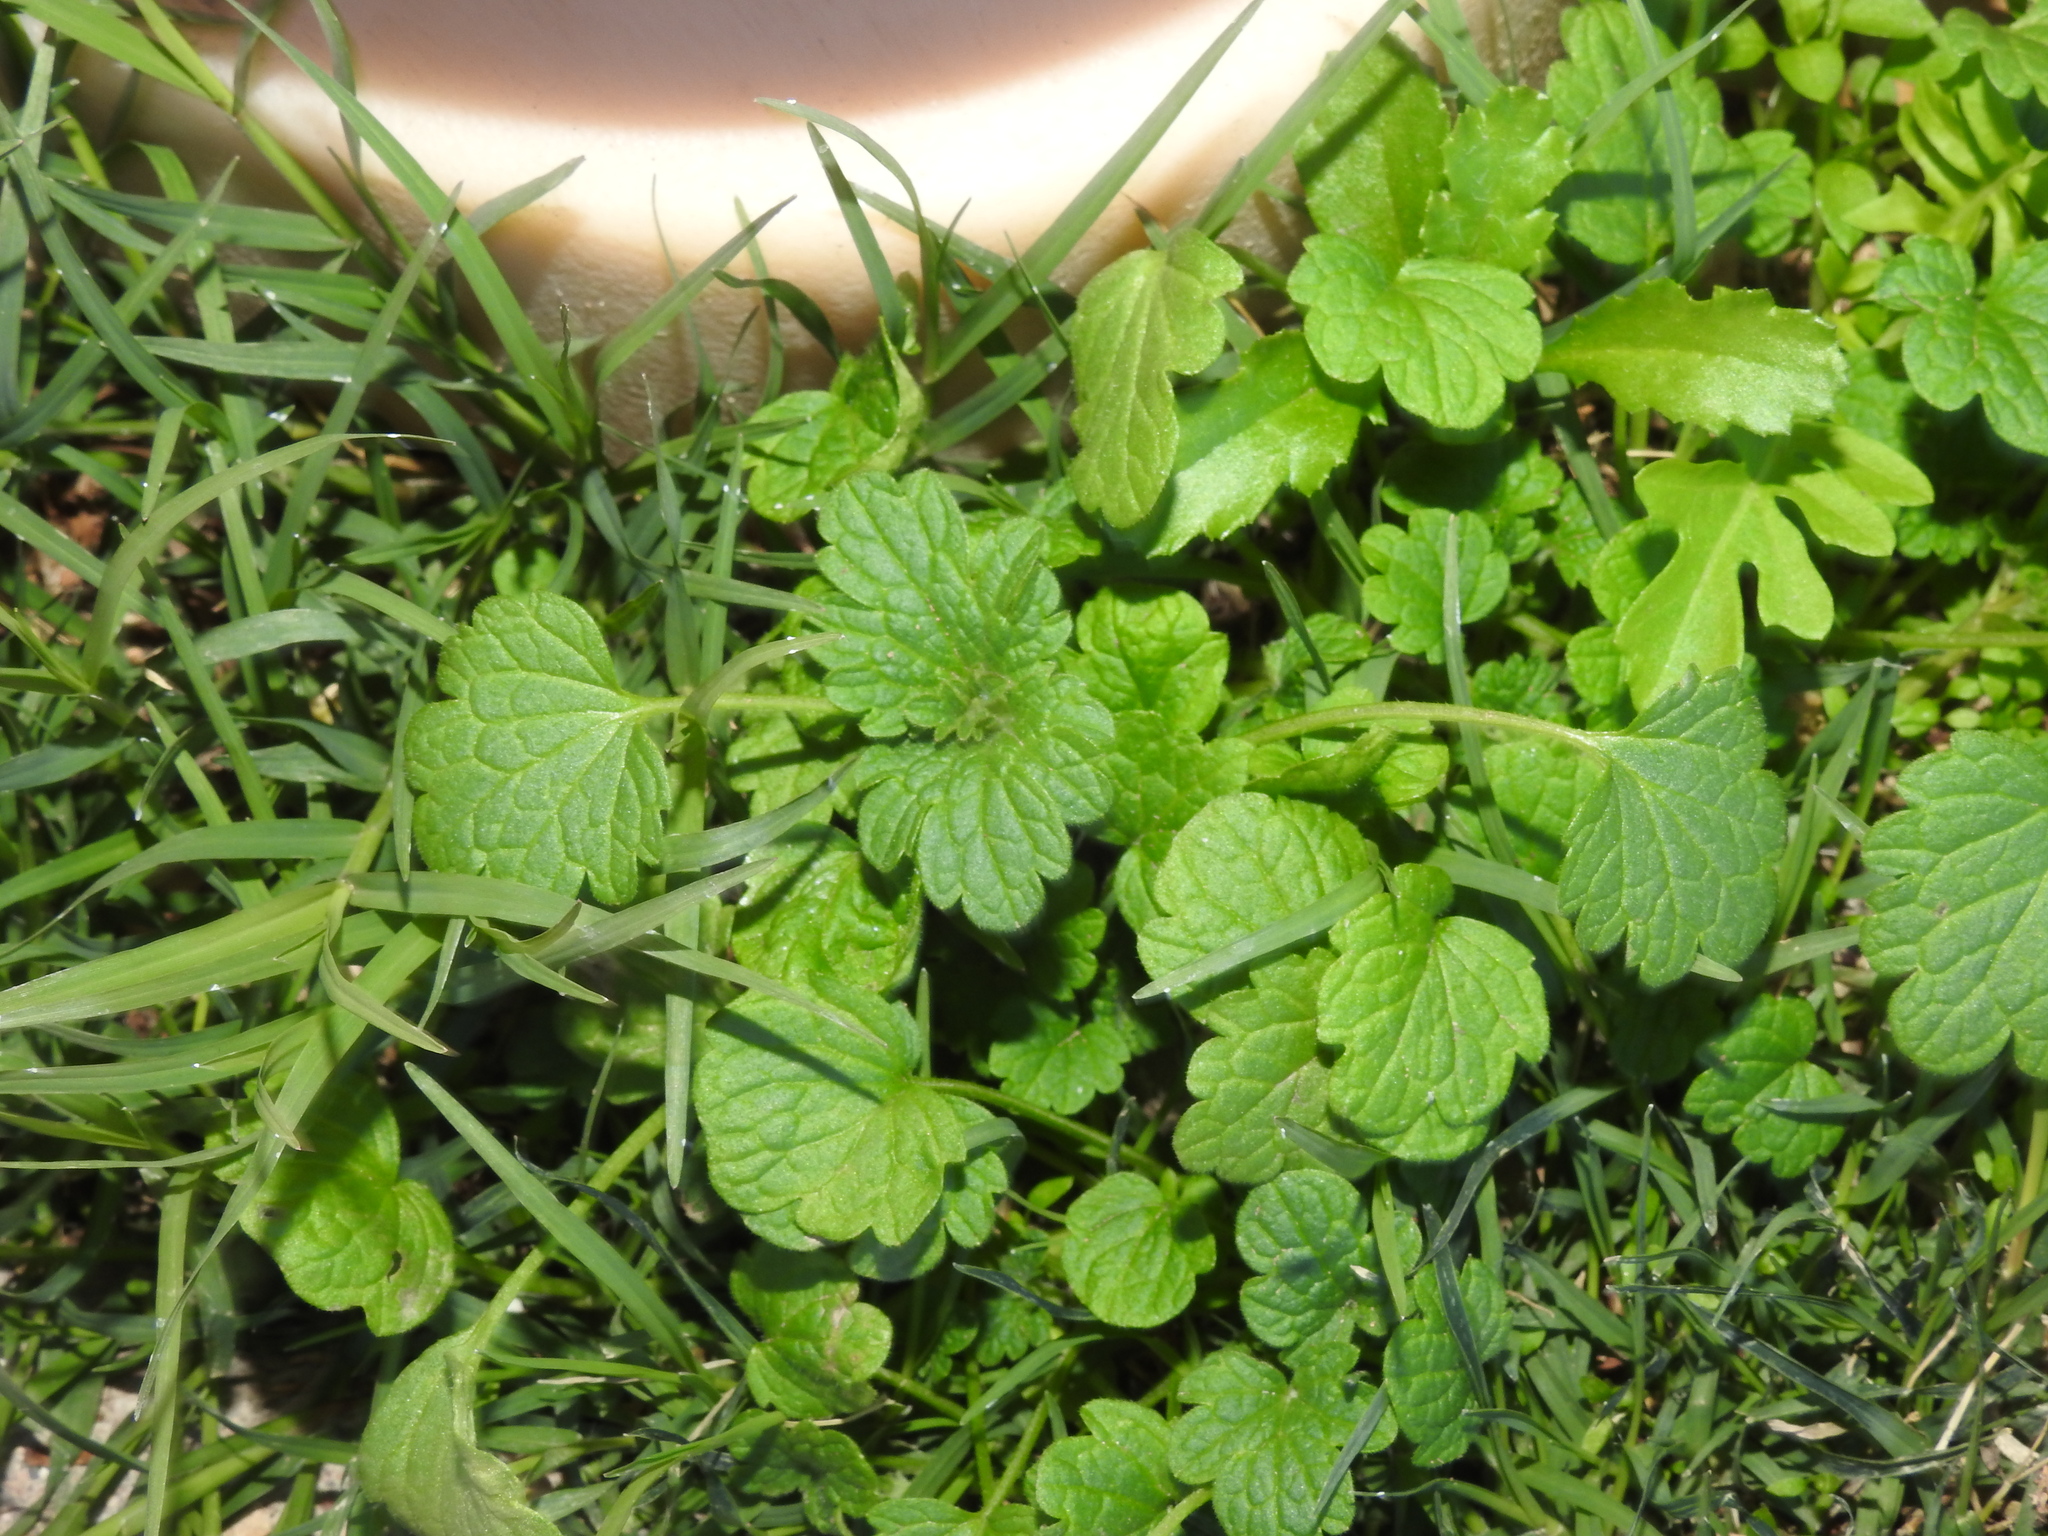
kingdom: Plantae
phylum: Tracheophyta
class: Magnoliopsida
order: Lamiales
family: Lamiaceae
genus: Lamium
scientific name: Lamium amplexicaule
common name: Henbit dead-nettle
